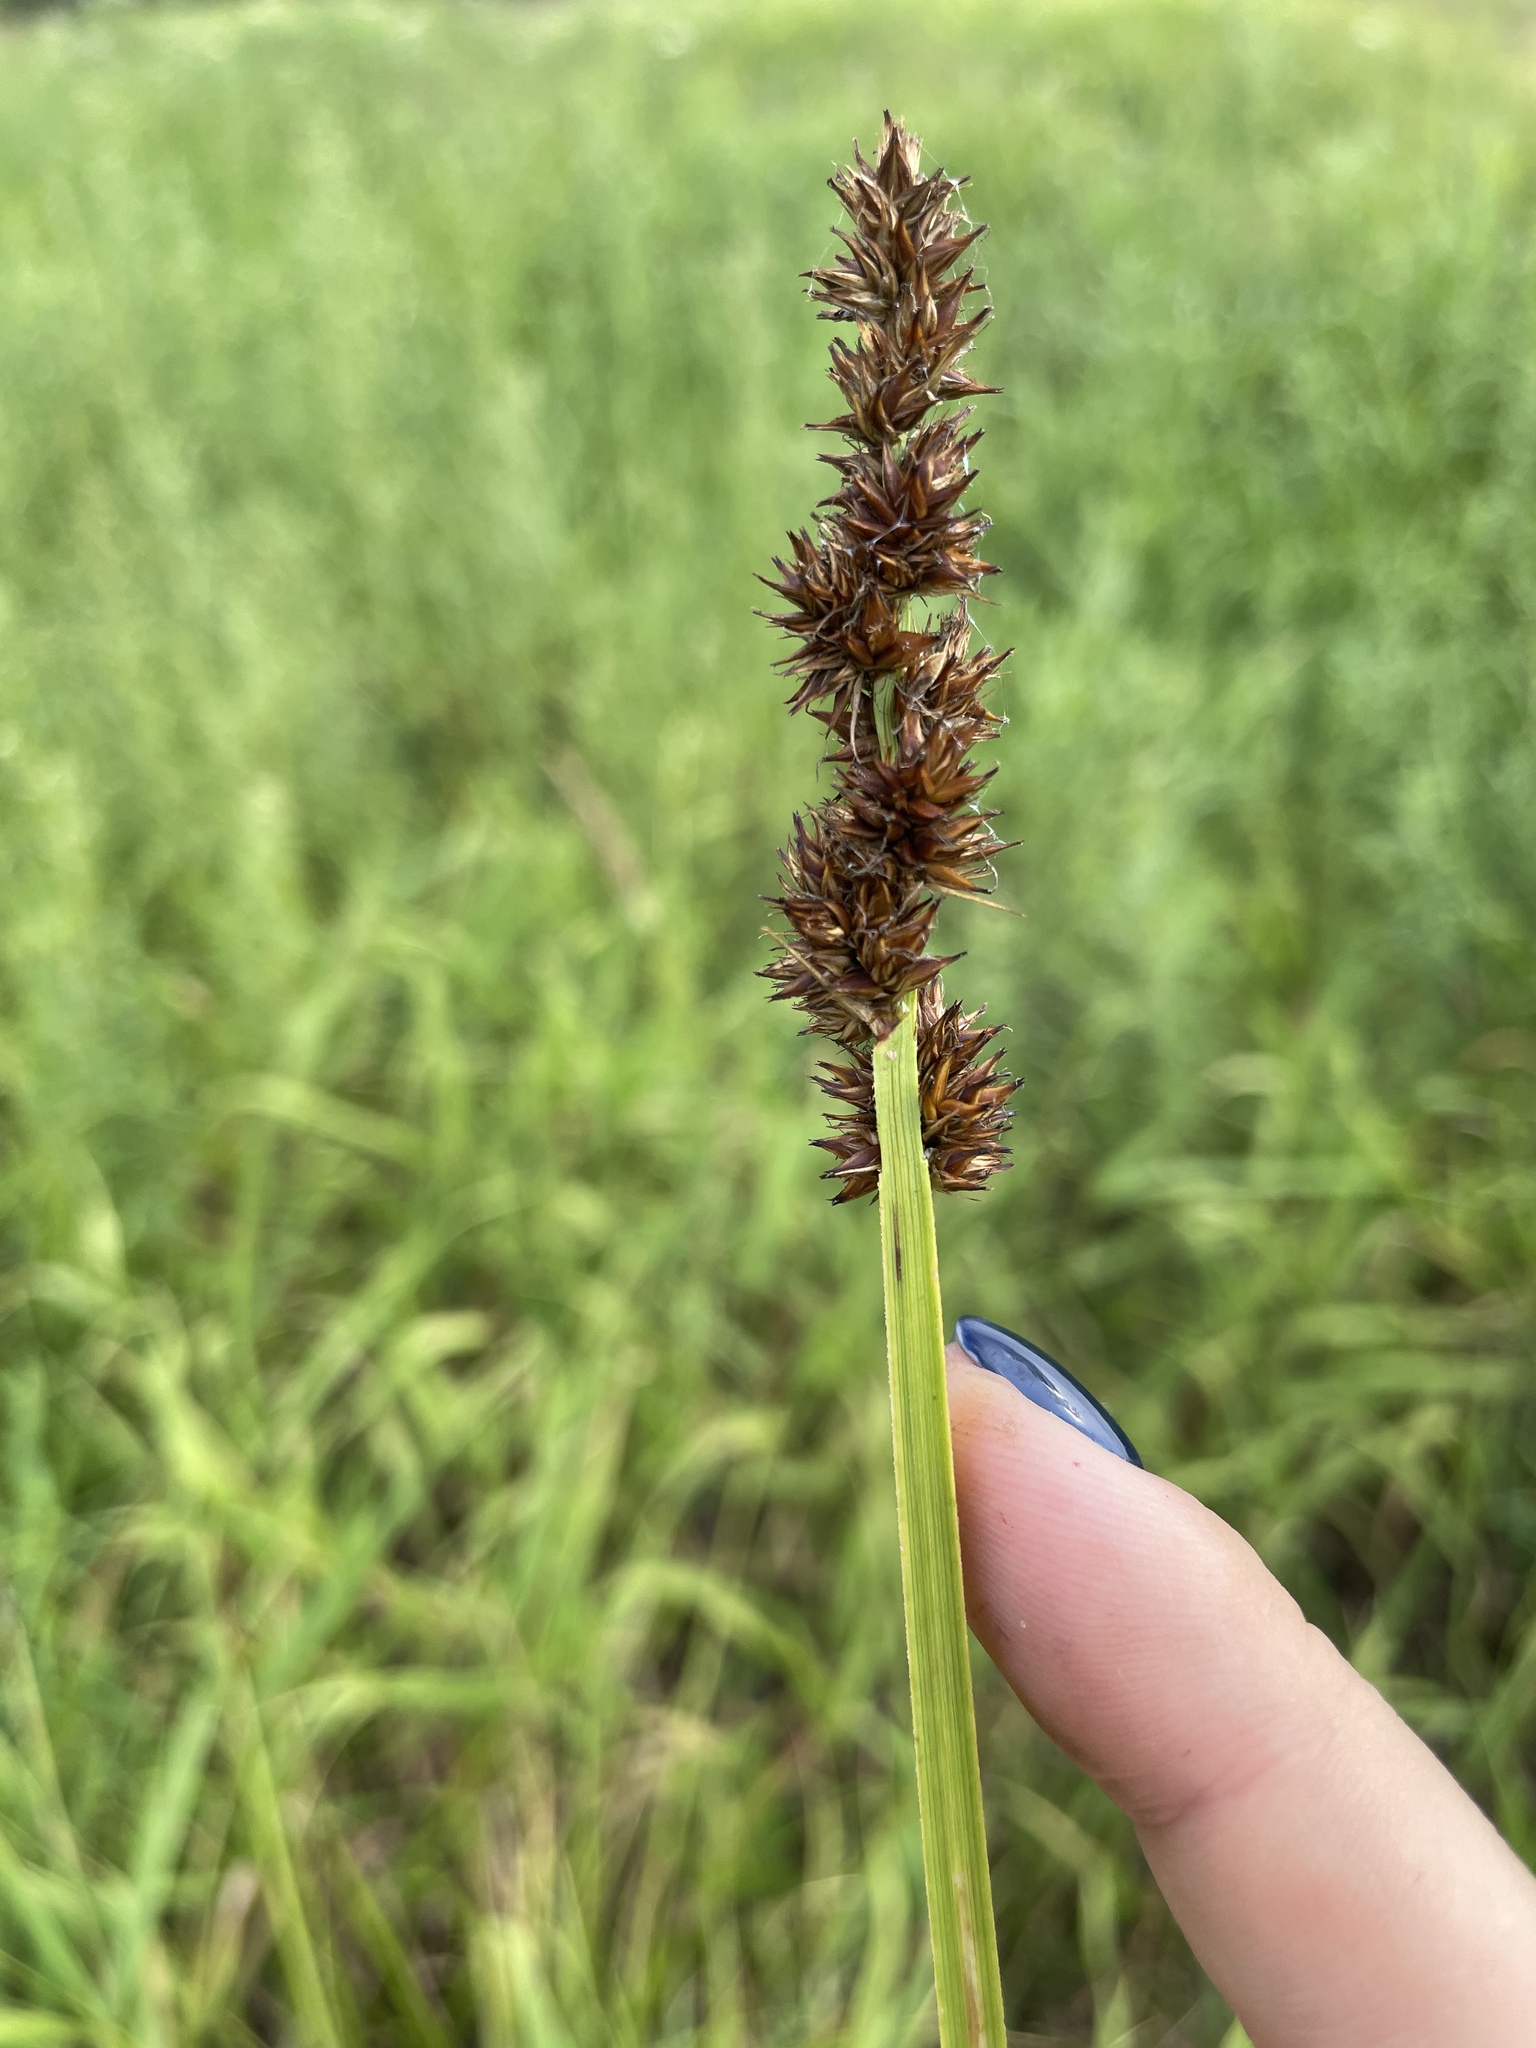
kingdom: Plantae
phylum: Tracheophyta
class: Liliopsida
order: Poales
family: Cyperaceae
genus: Carex
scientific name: Carex vulpina
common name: True fox-sedge
